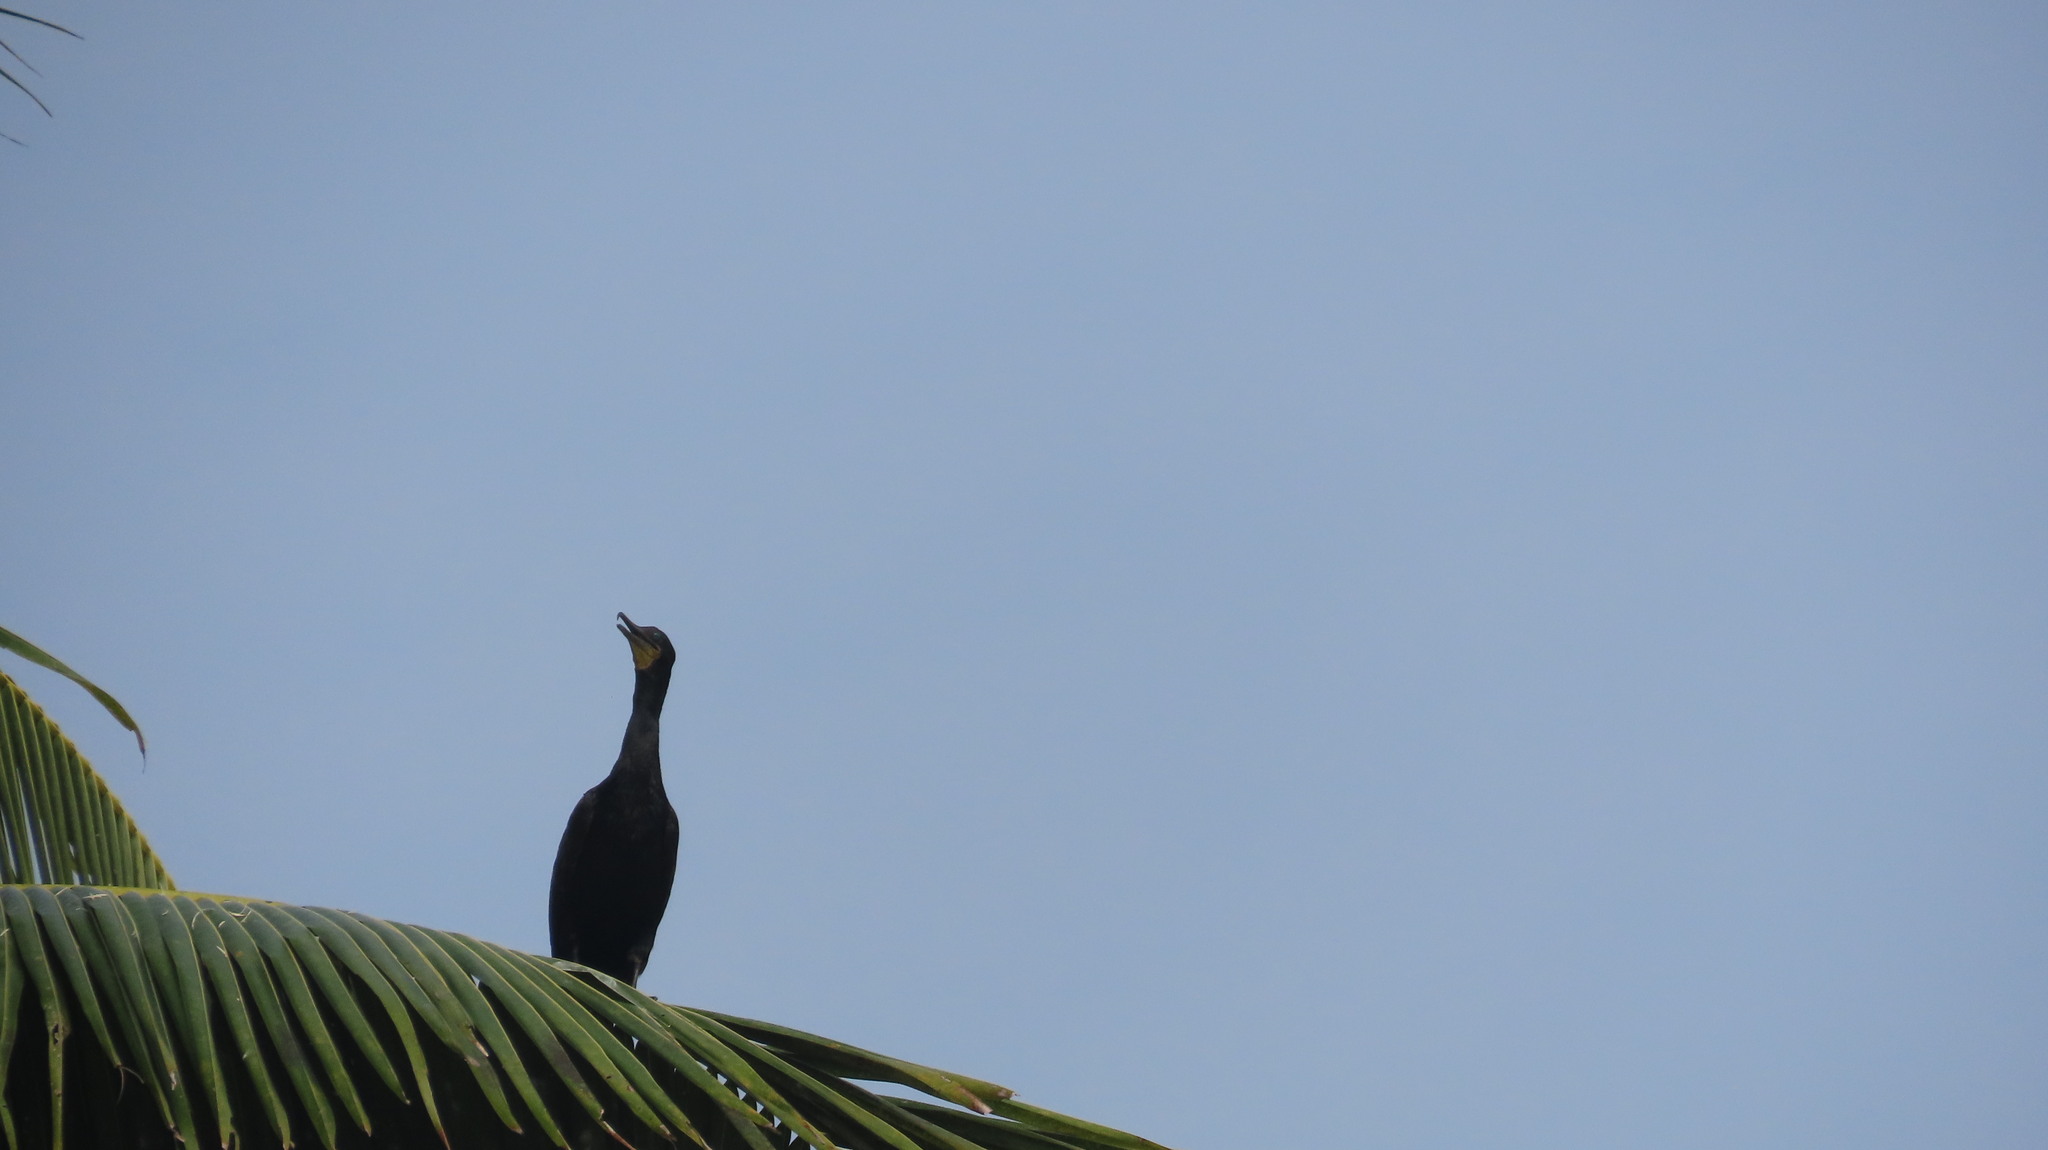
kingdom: Animalia
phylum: Chordata
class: Aves
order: Suliformes
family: Phalacrocoracidae
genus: Phalacrocorax
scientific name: Phalacrocorax fuscicollis
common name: Indian cormorant
